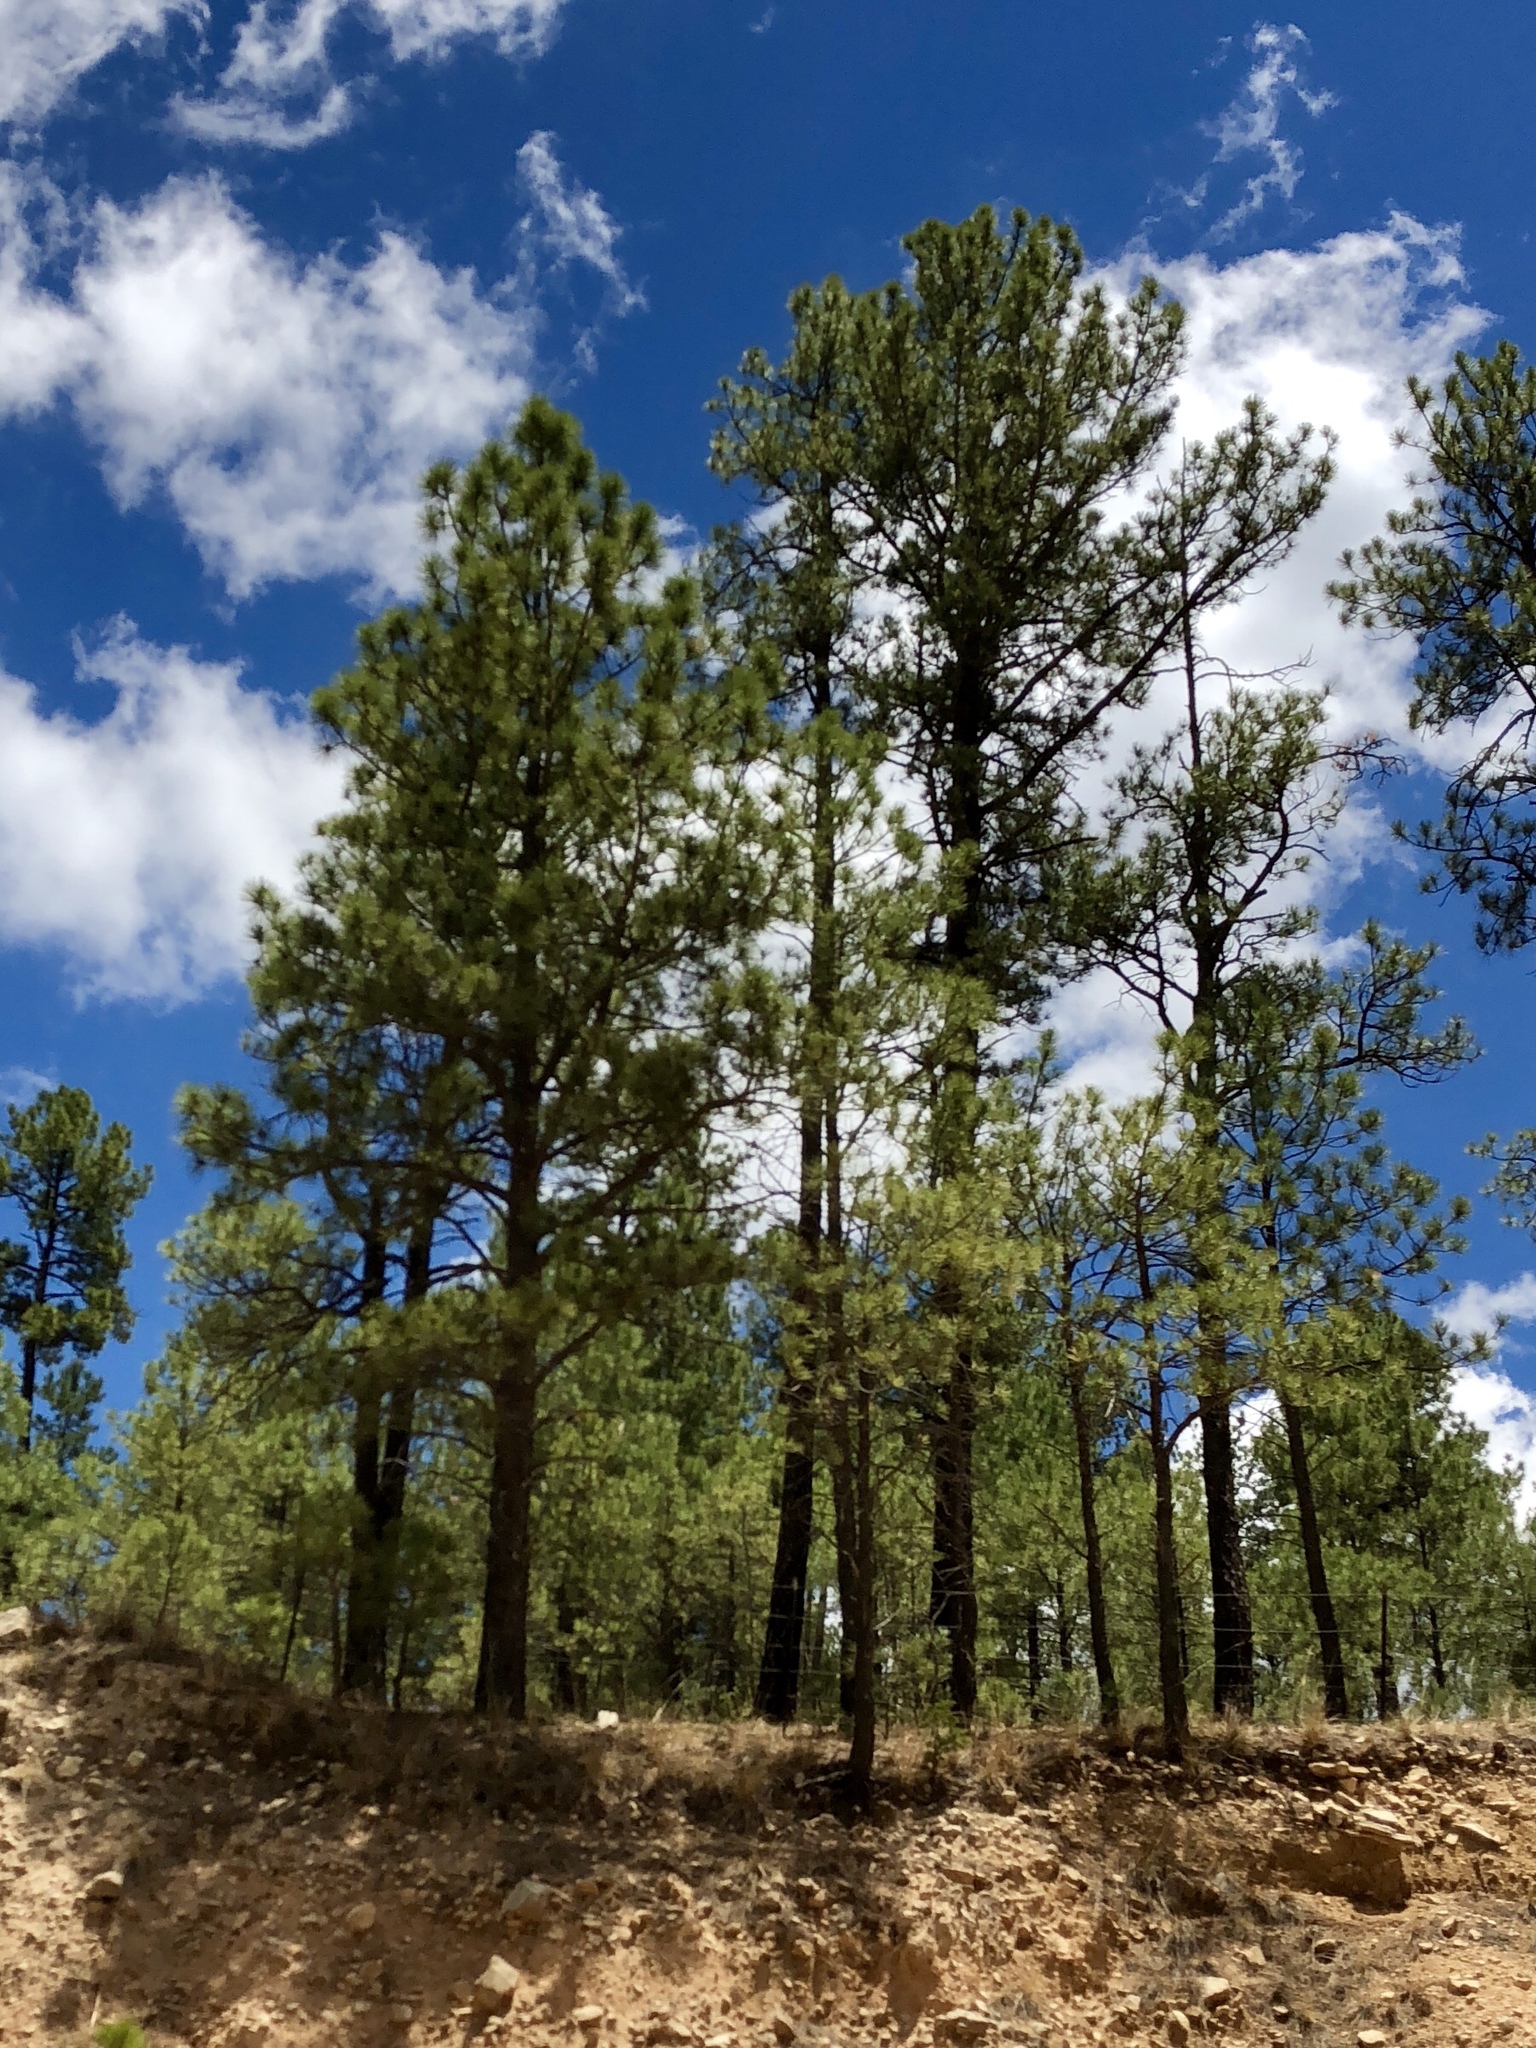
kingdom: Plantae
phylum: Tracheophyta
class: Pinopsida
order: Pinales
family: Pinaceae
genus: Pinus
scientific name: Pinus ponderosa
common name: Western yellow-pine
